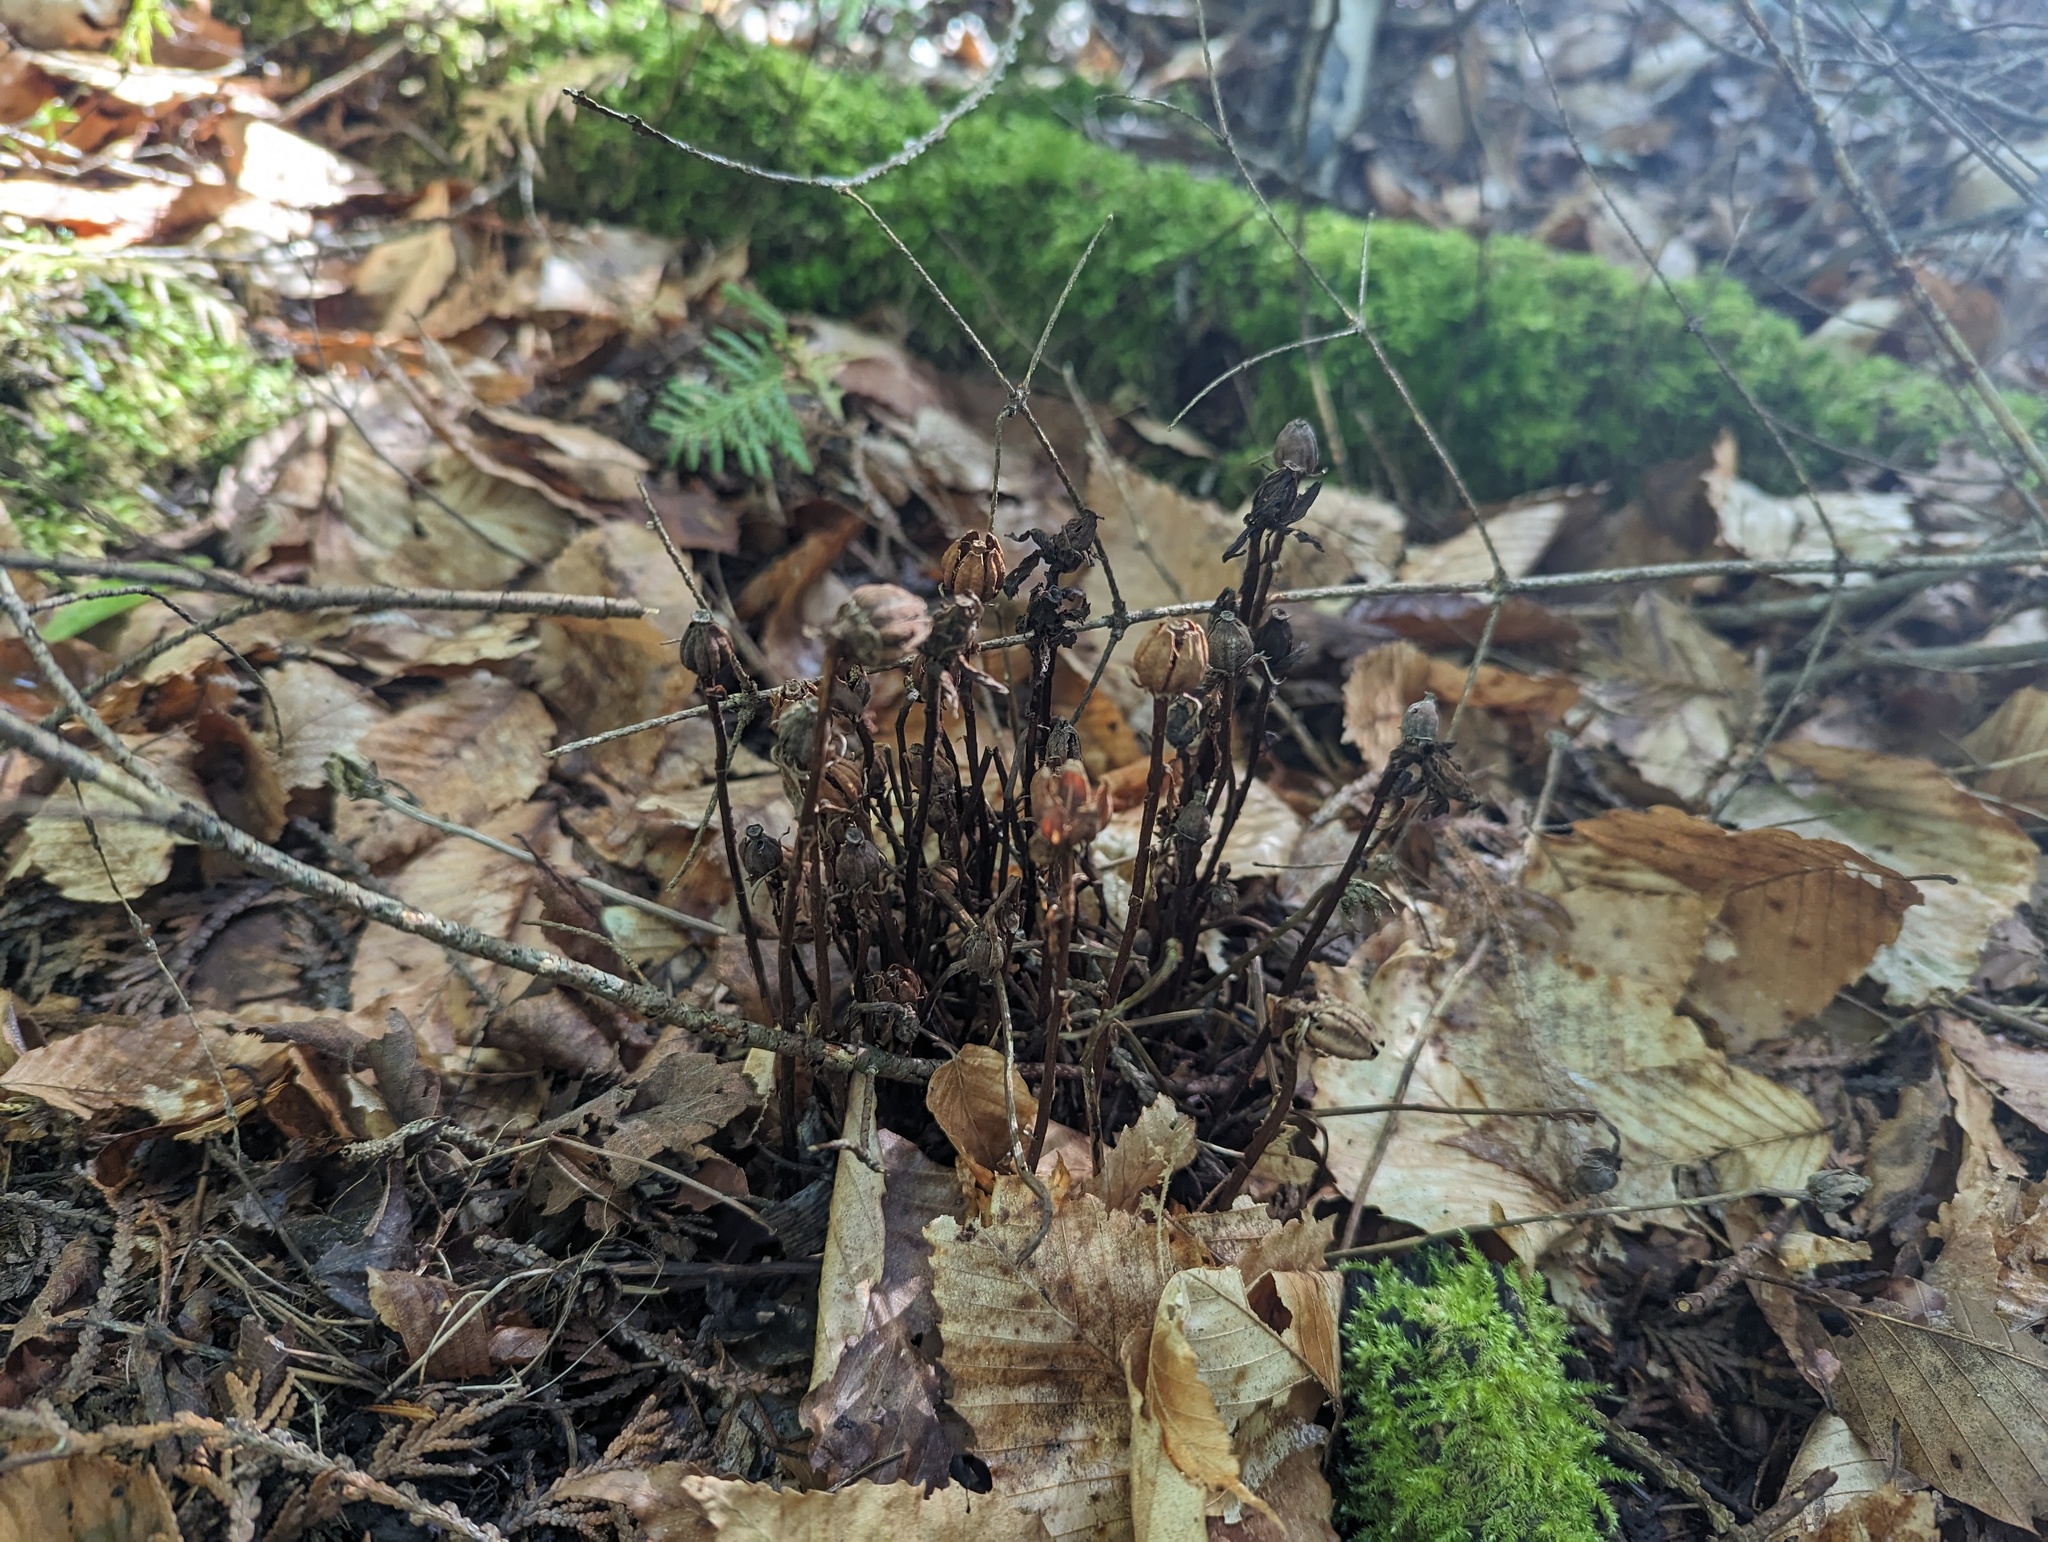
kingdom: Plantae
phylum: Tracheophyta
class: Magnoliopsida
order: Ericales
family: Ericaceae
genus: Monotropa
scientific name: Monotropa uniflora
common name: Convulsion root
